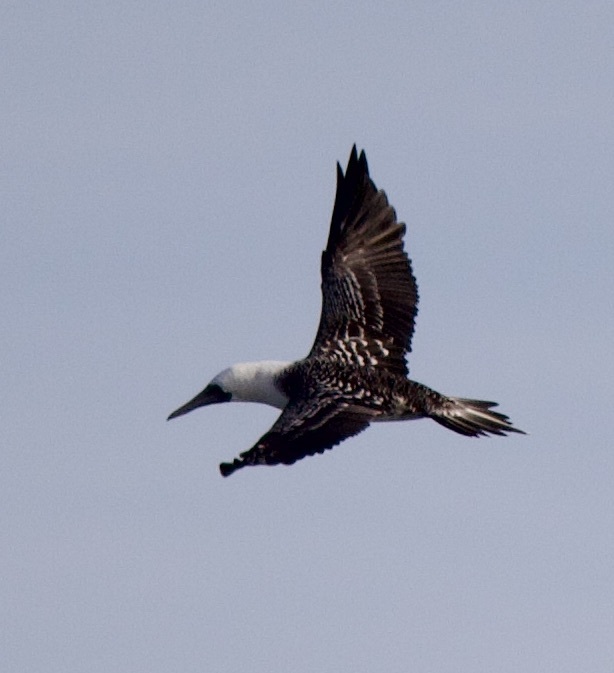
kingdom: Animalia
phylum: Chordata
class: Aves
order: Suliformes
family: Sulidae
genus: Sula
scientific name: Sula variegata
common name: Peruvian booby
